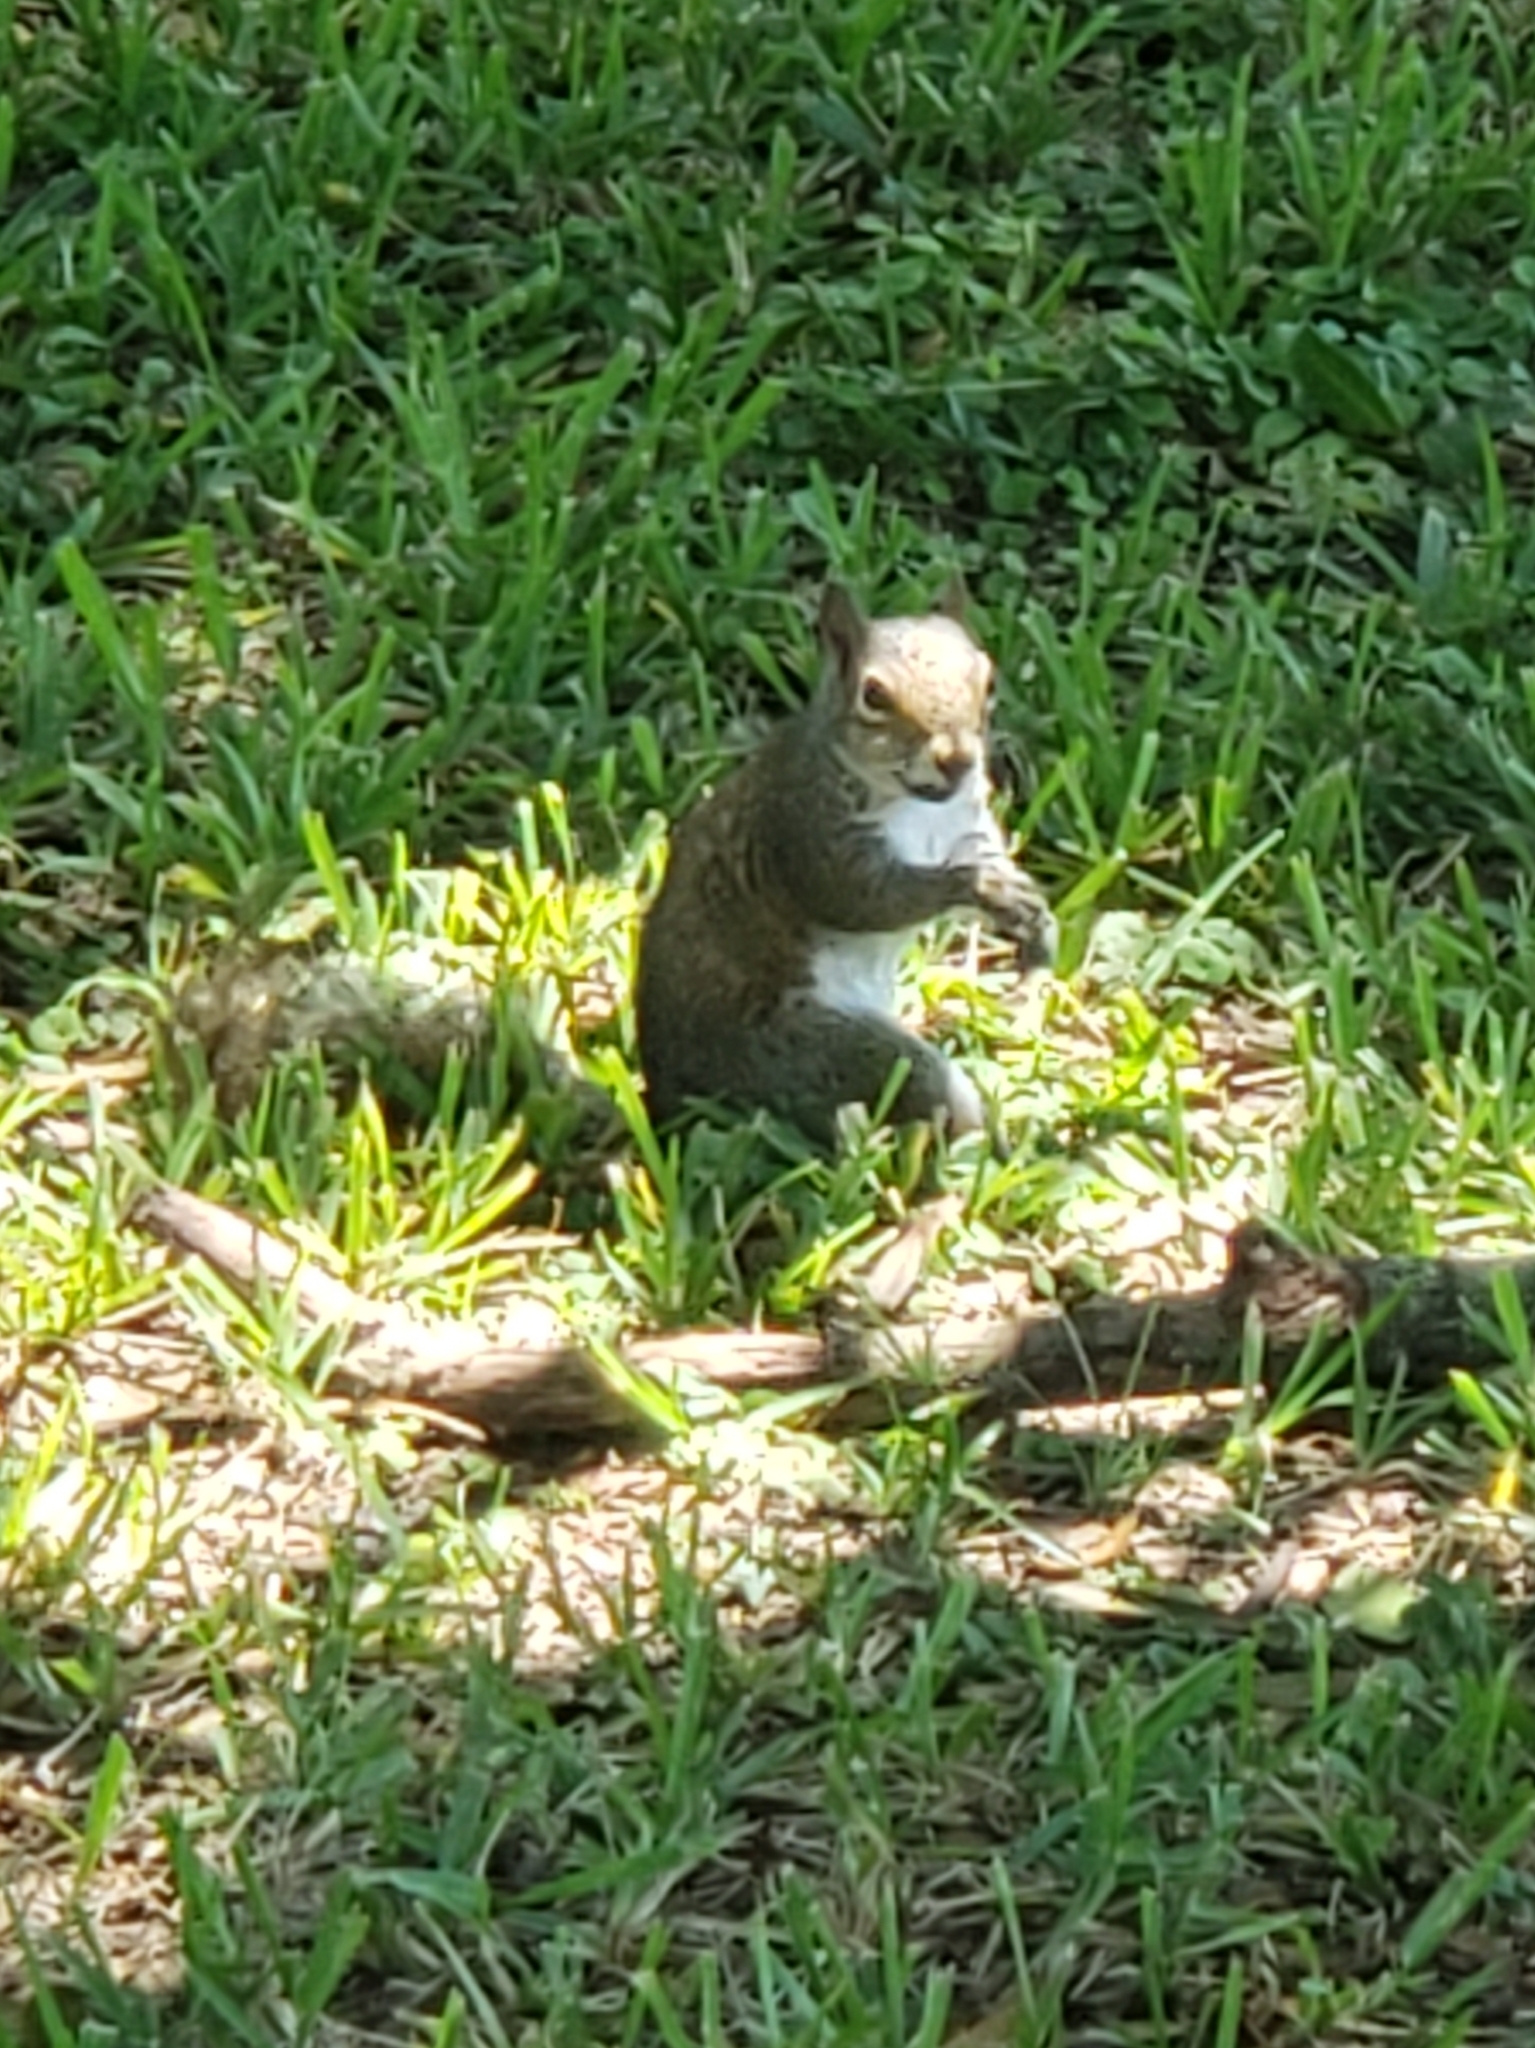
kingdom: Animalia
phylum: Chordata
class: Mammalia
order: Rodentia
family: Sciuridae
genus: Sciurus
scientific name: Sciurus carolinensis
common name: Eastern gray squirrel
